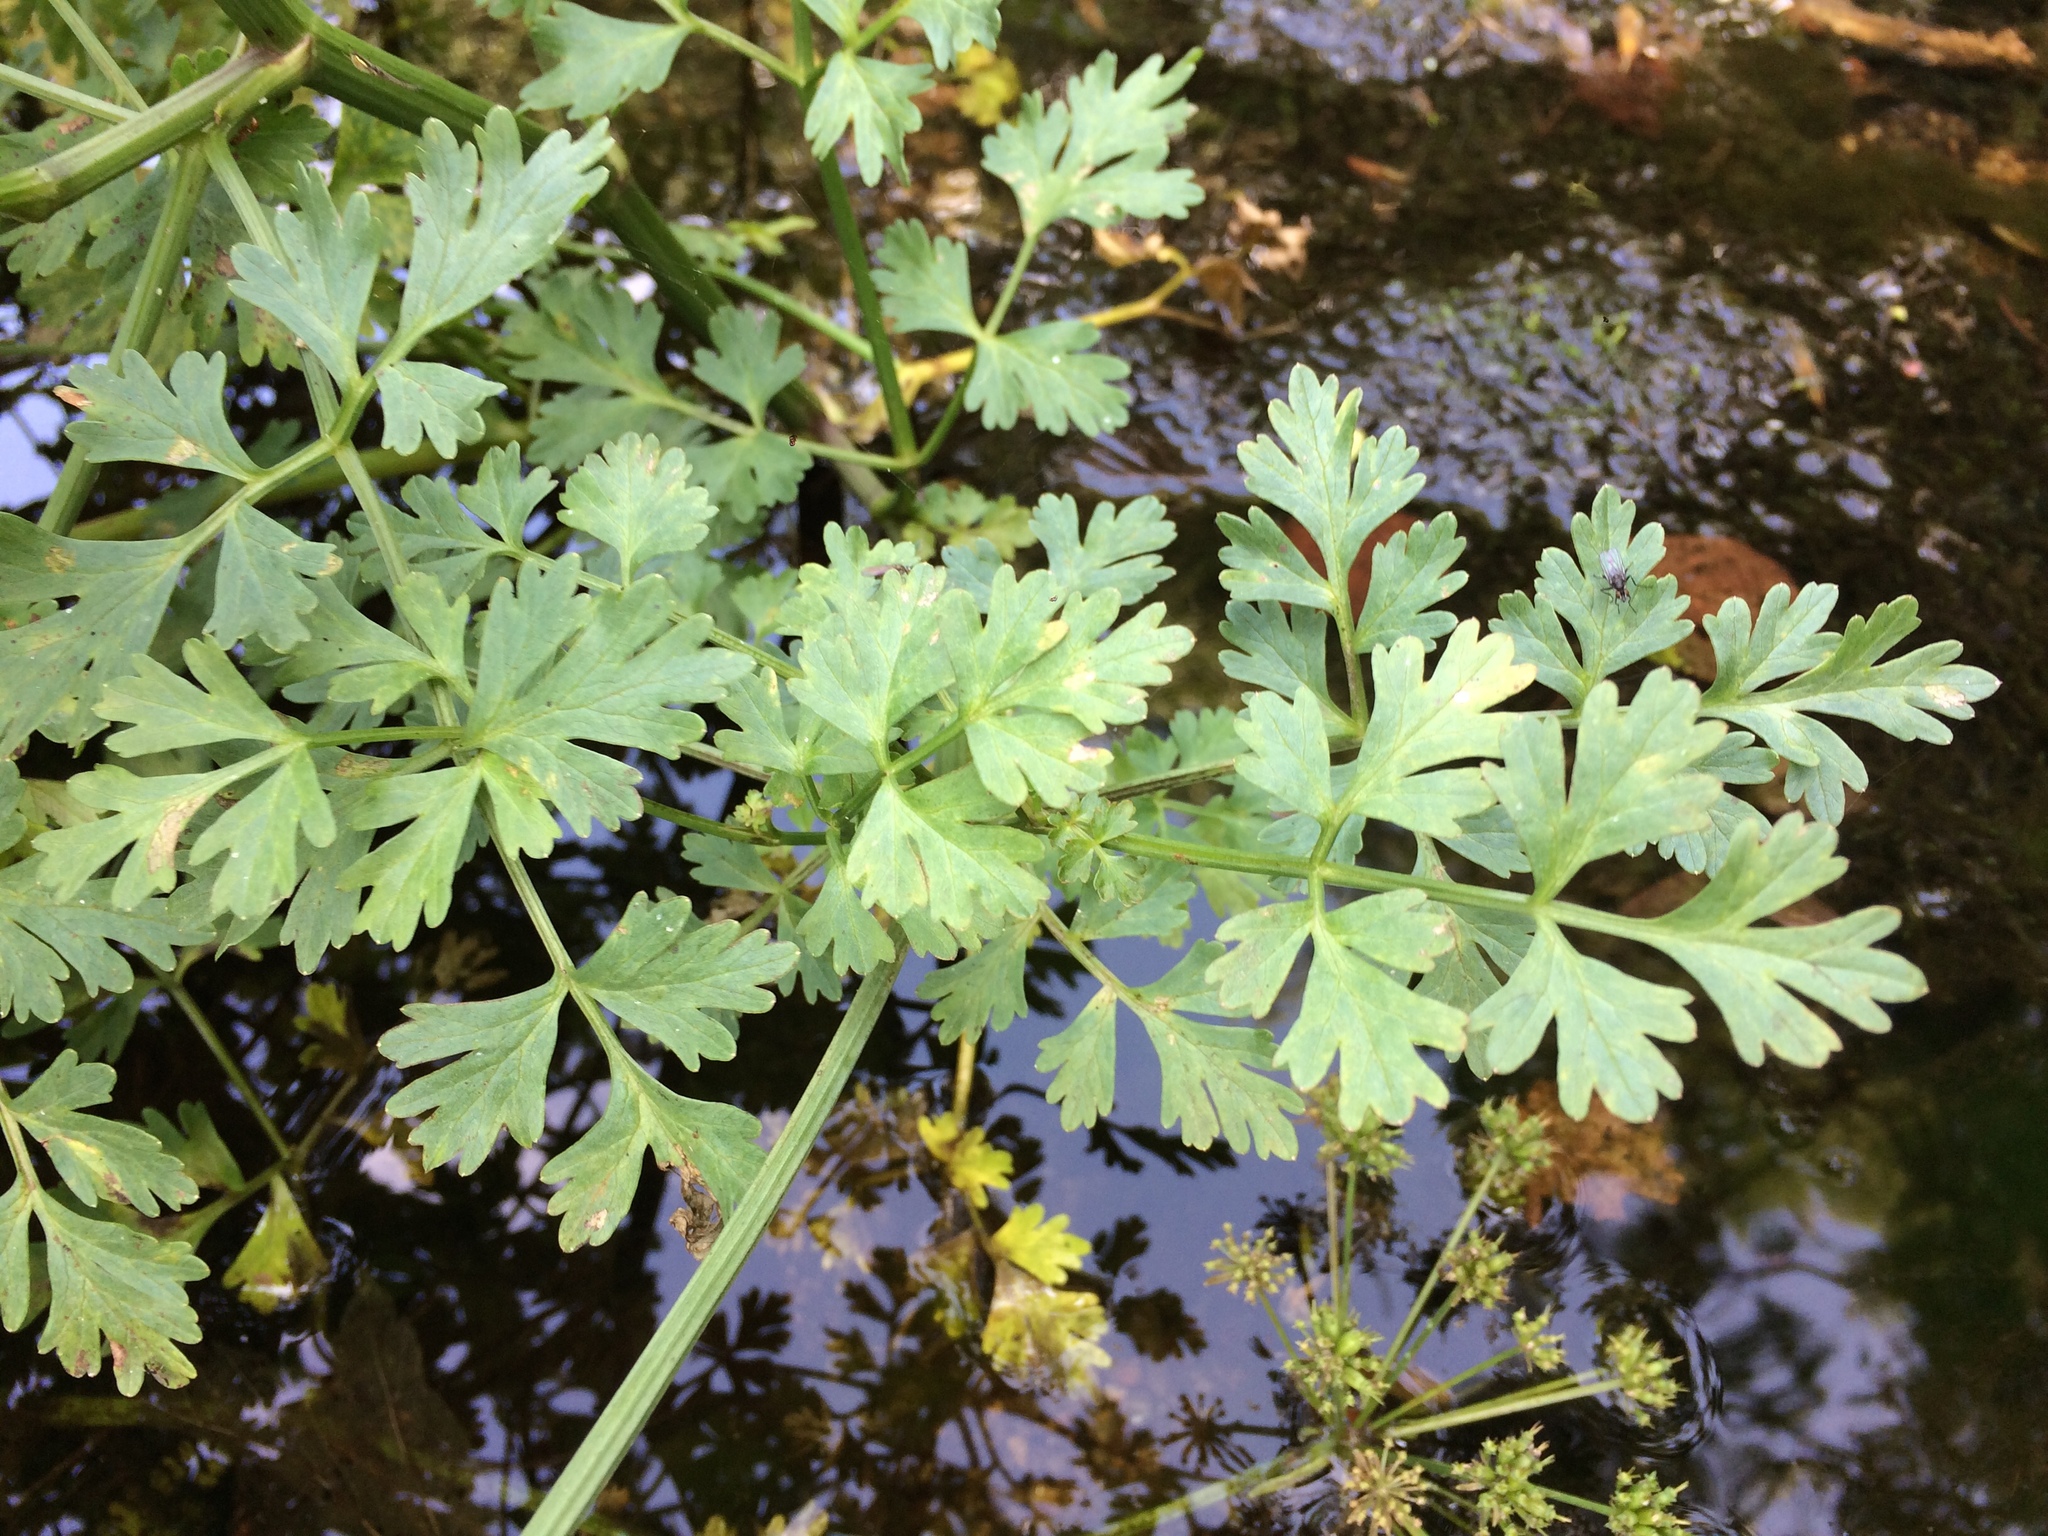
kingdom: Plantae
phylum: Tracheophyta
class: Magnoliopsida
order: Apiales
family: Apiaceae
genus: Oenanthe
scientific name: Oenanthe crocata
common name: Hemlock water-dropwort
